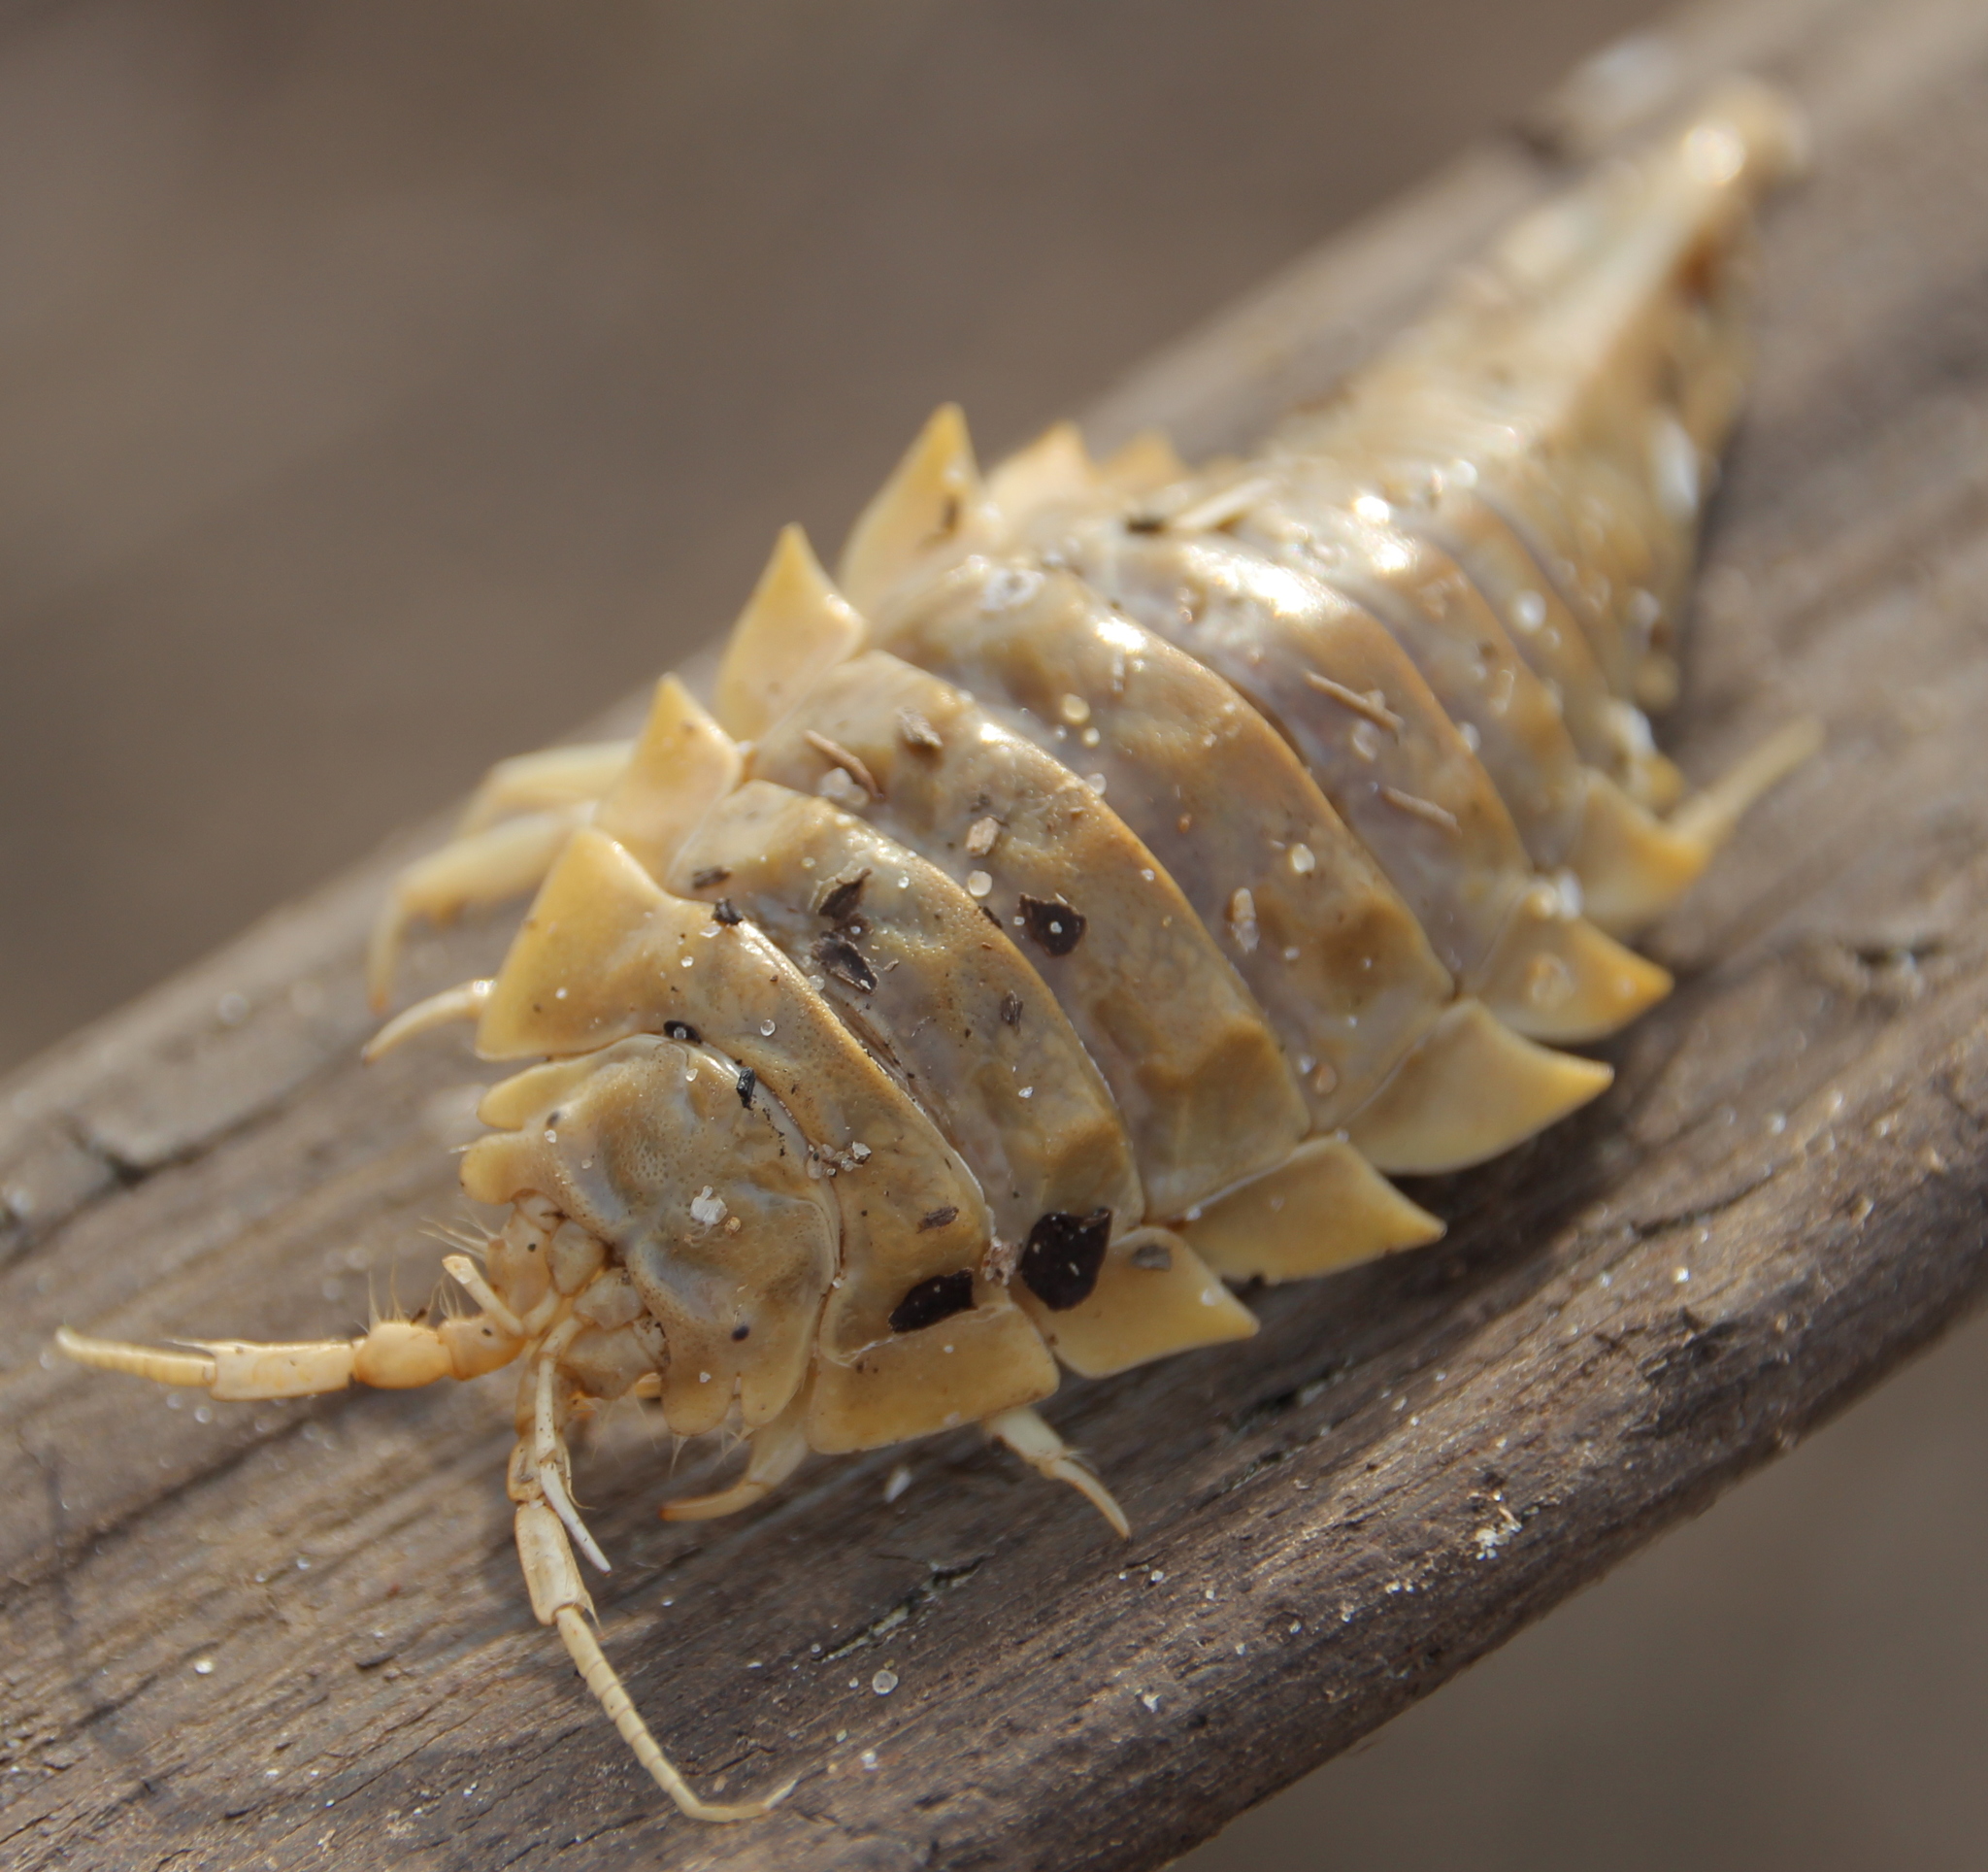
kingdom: Animalia
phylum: Arthropoda
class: Malacostraca
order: Isopoda
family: Chaetiliidae
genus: Saduria
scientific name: Saduria entomon
